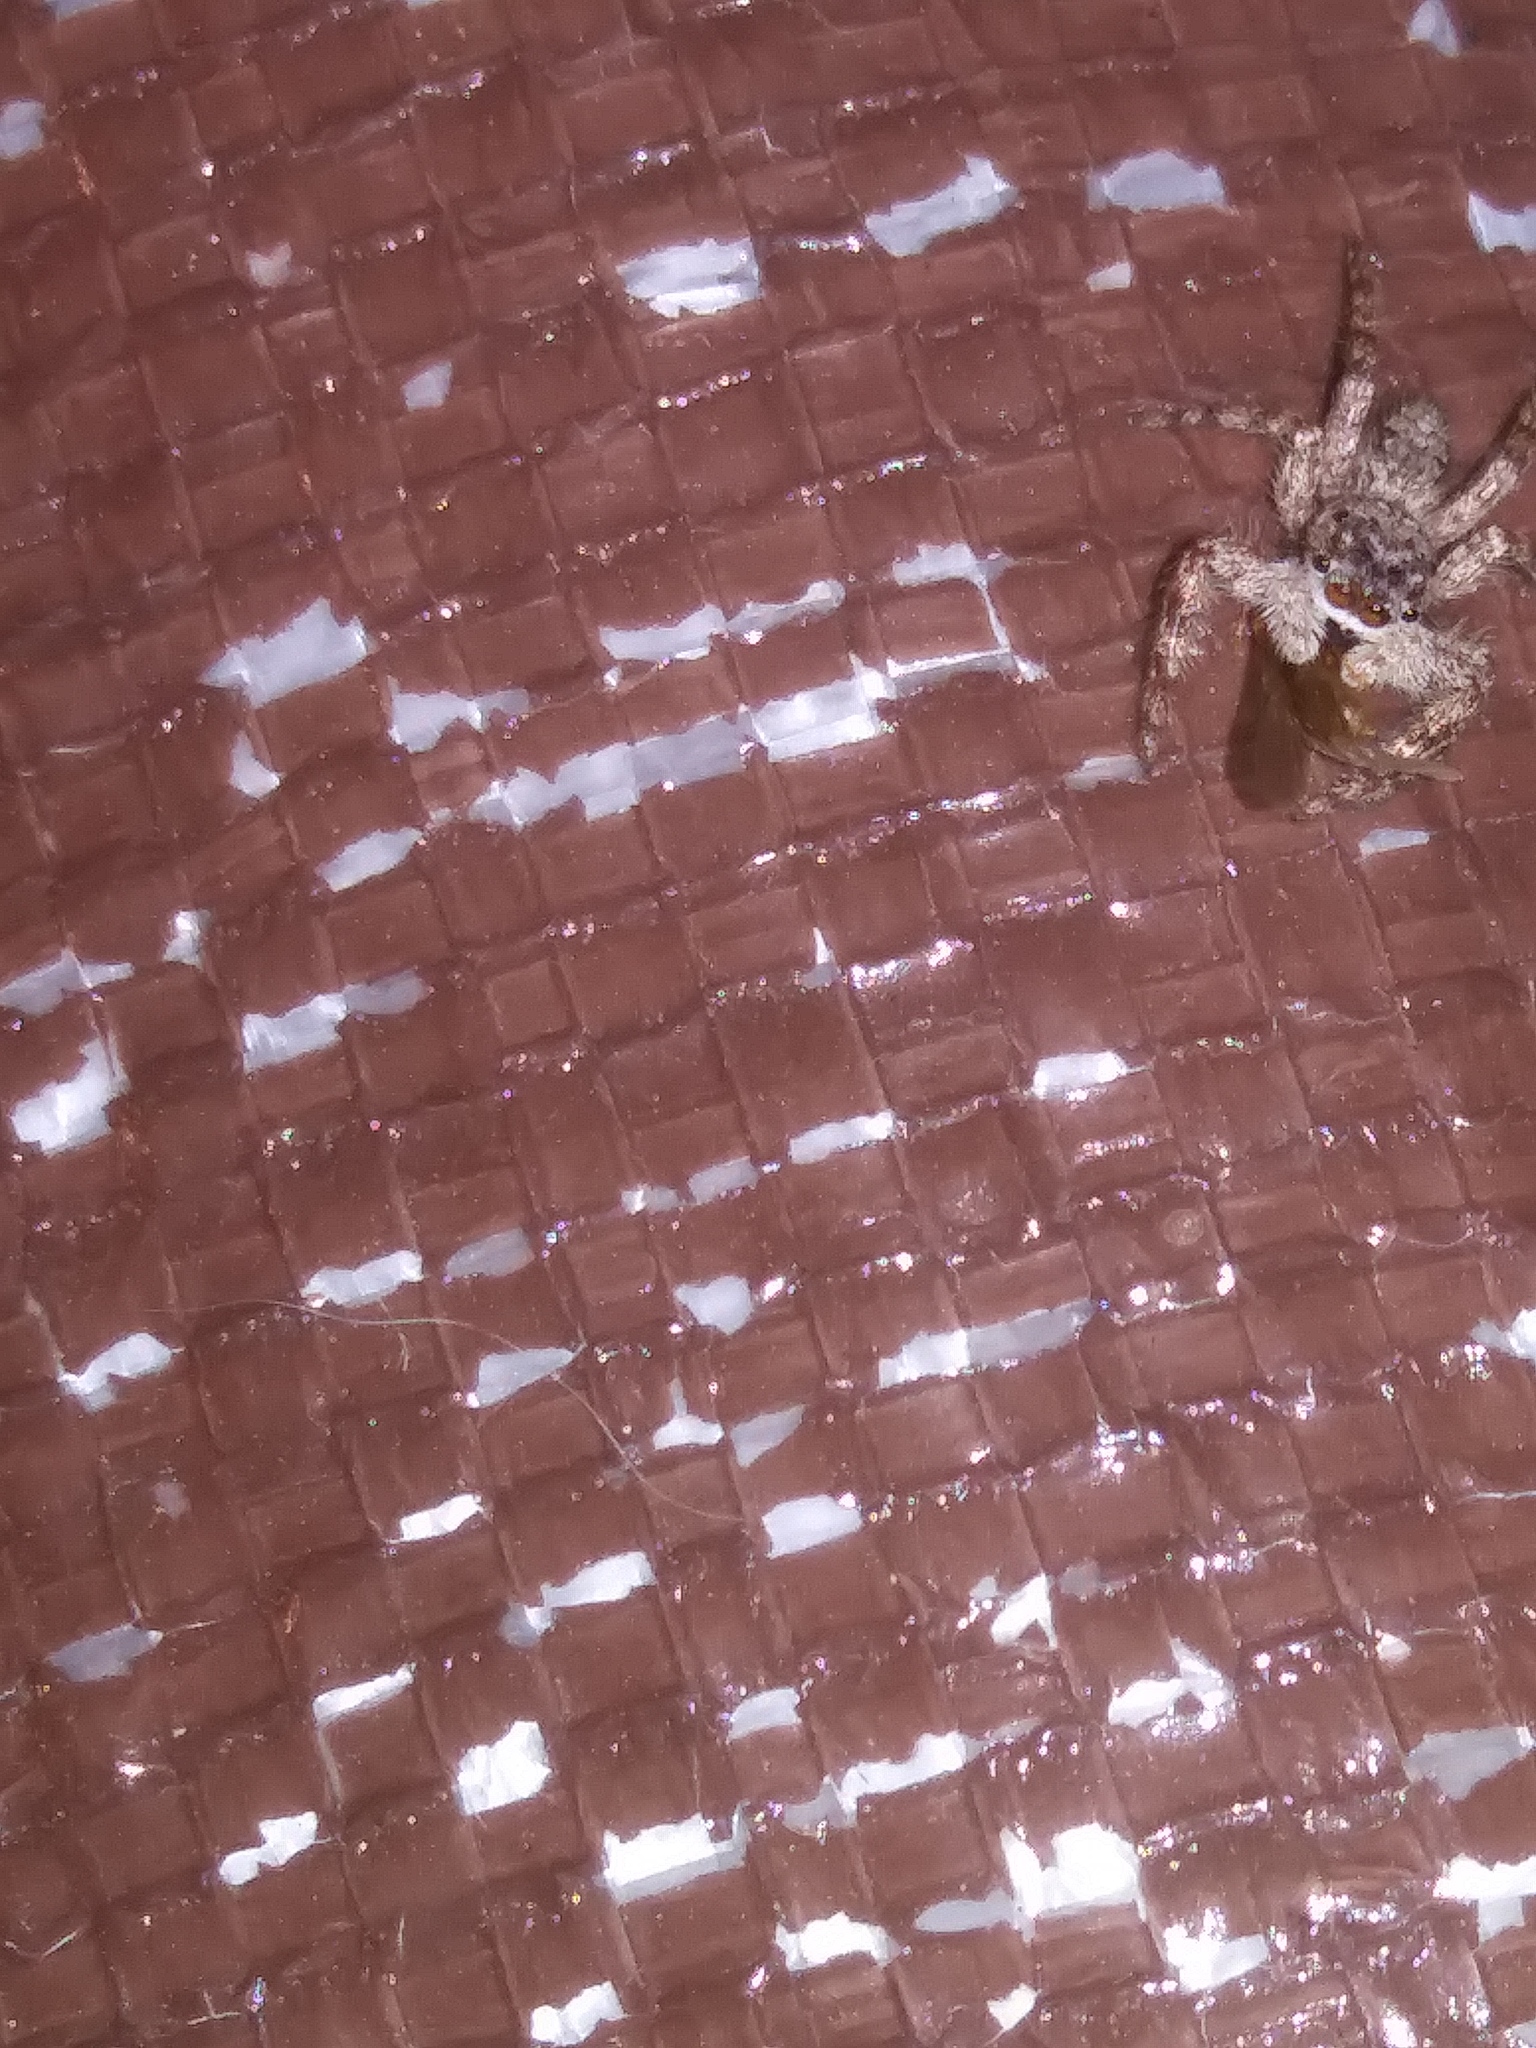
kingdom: Animalia
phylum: Arthropoda
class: Arachnida
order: Araneae
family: Salticidae
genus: Platycryptus
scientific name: Platycryptus undatus
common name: Tan jumping spider
